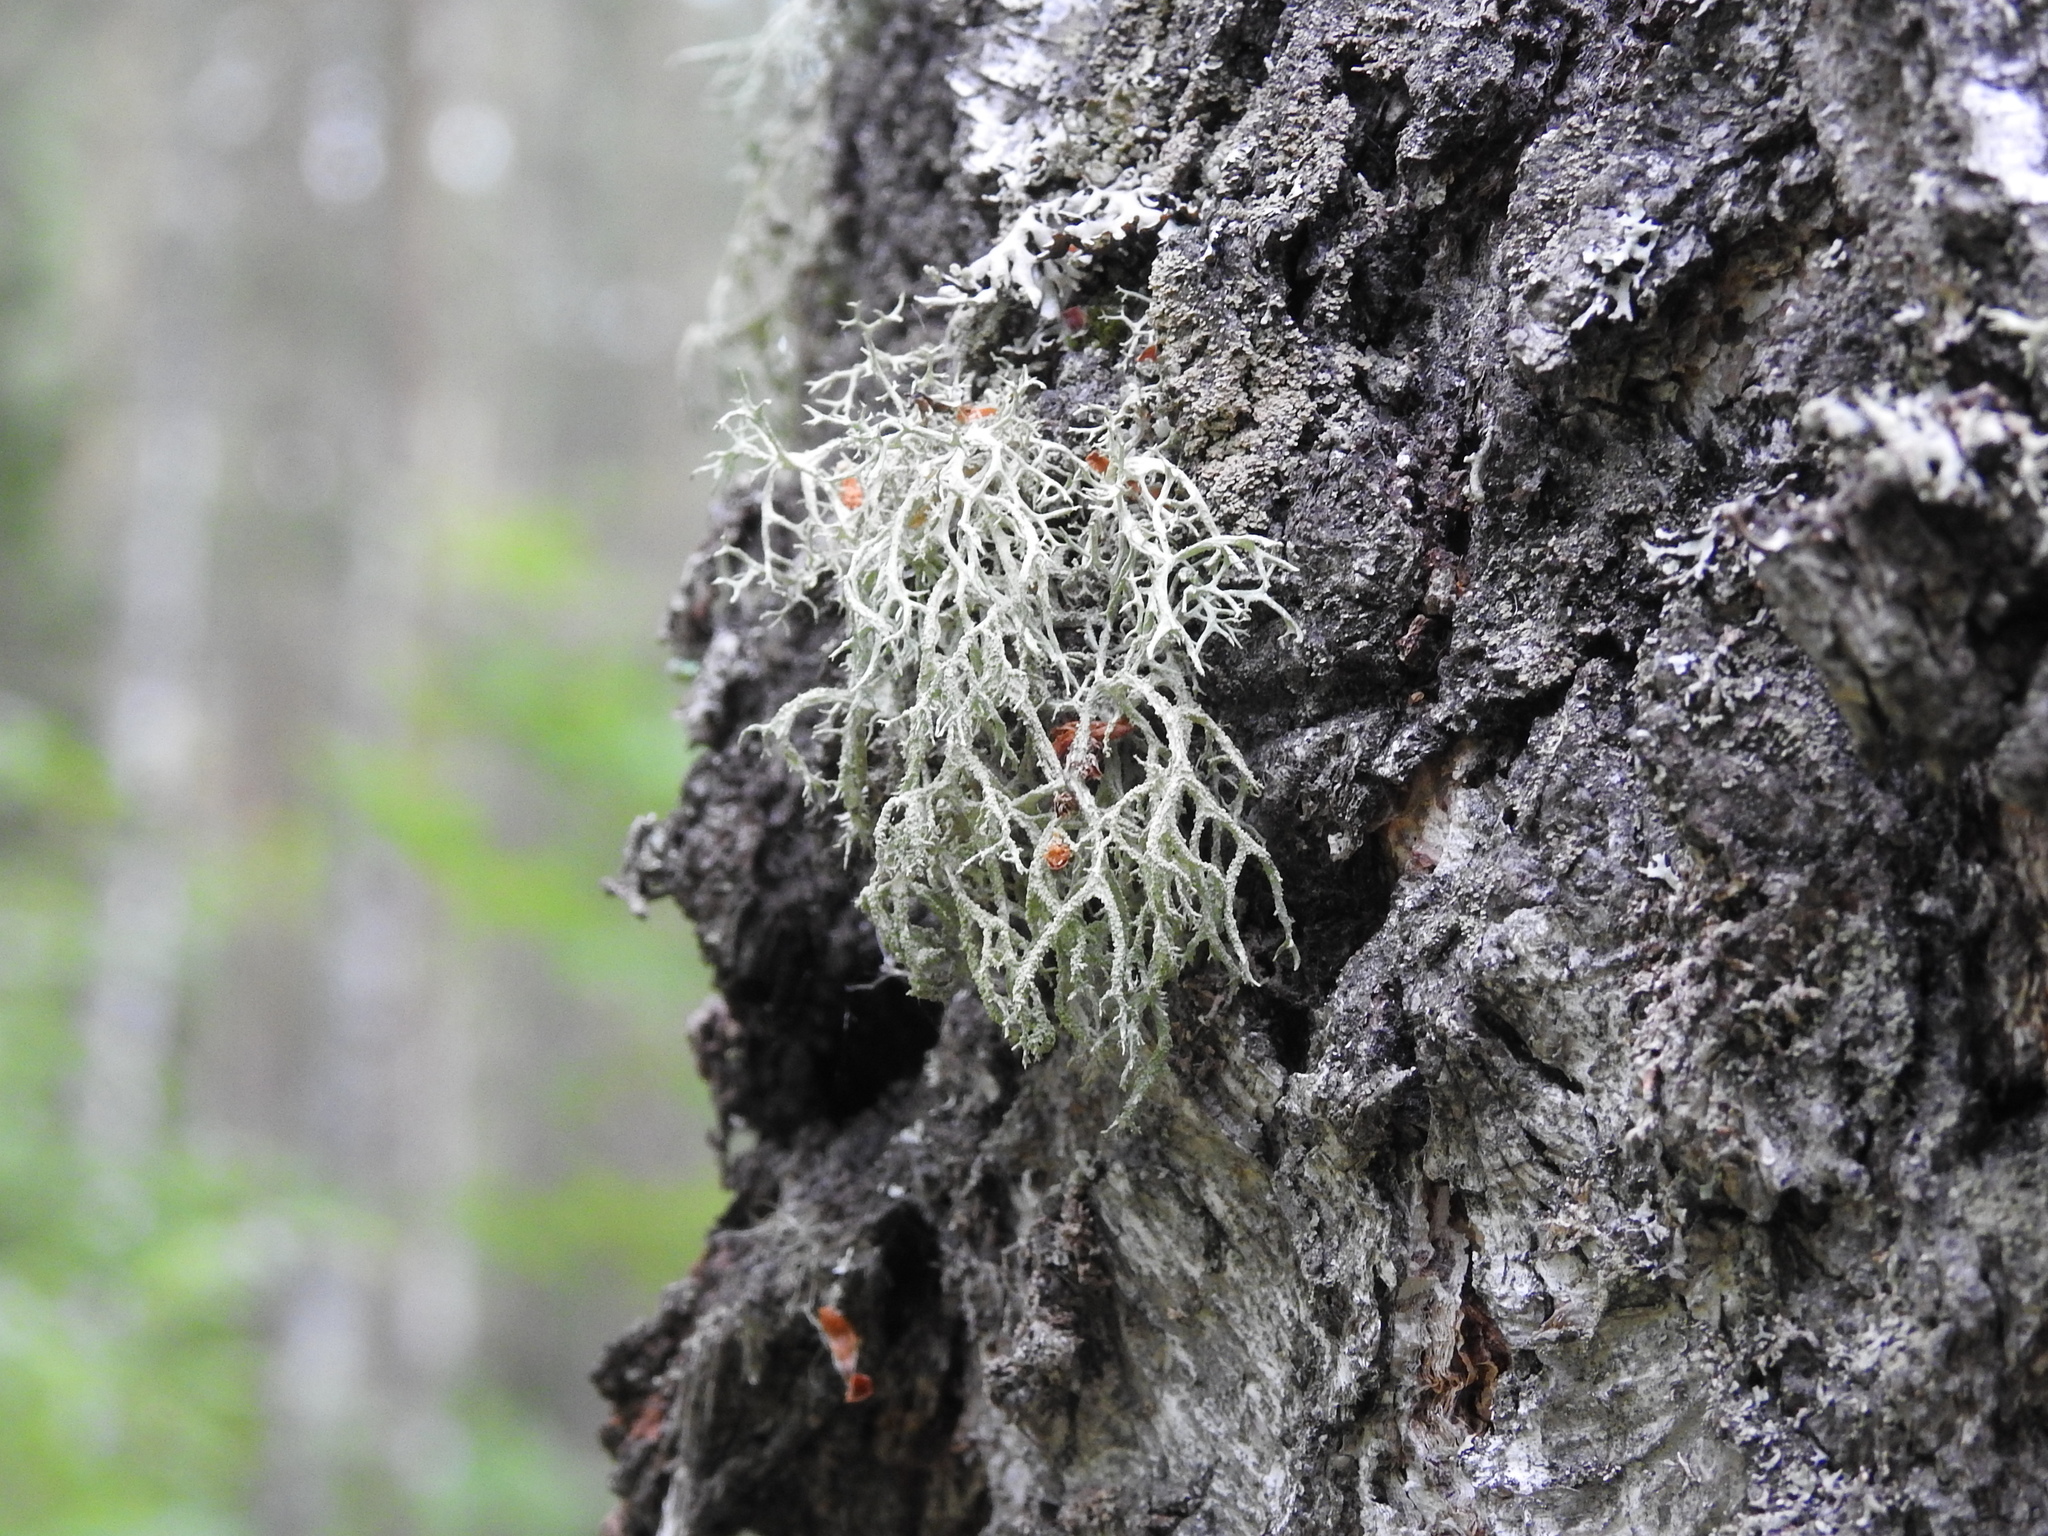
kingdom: Fungi
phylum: Ascomycota
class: Lecanoromycetes
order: Lecanorales
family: Parmeliaceae
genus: Evernia
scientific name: Evernia mesomorpha
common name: Boreal oak moss lichen
